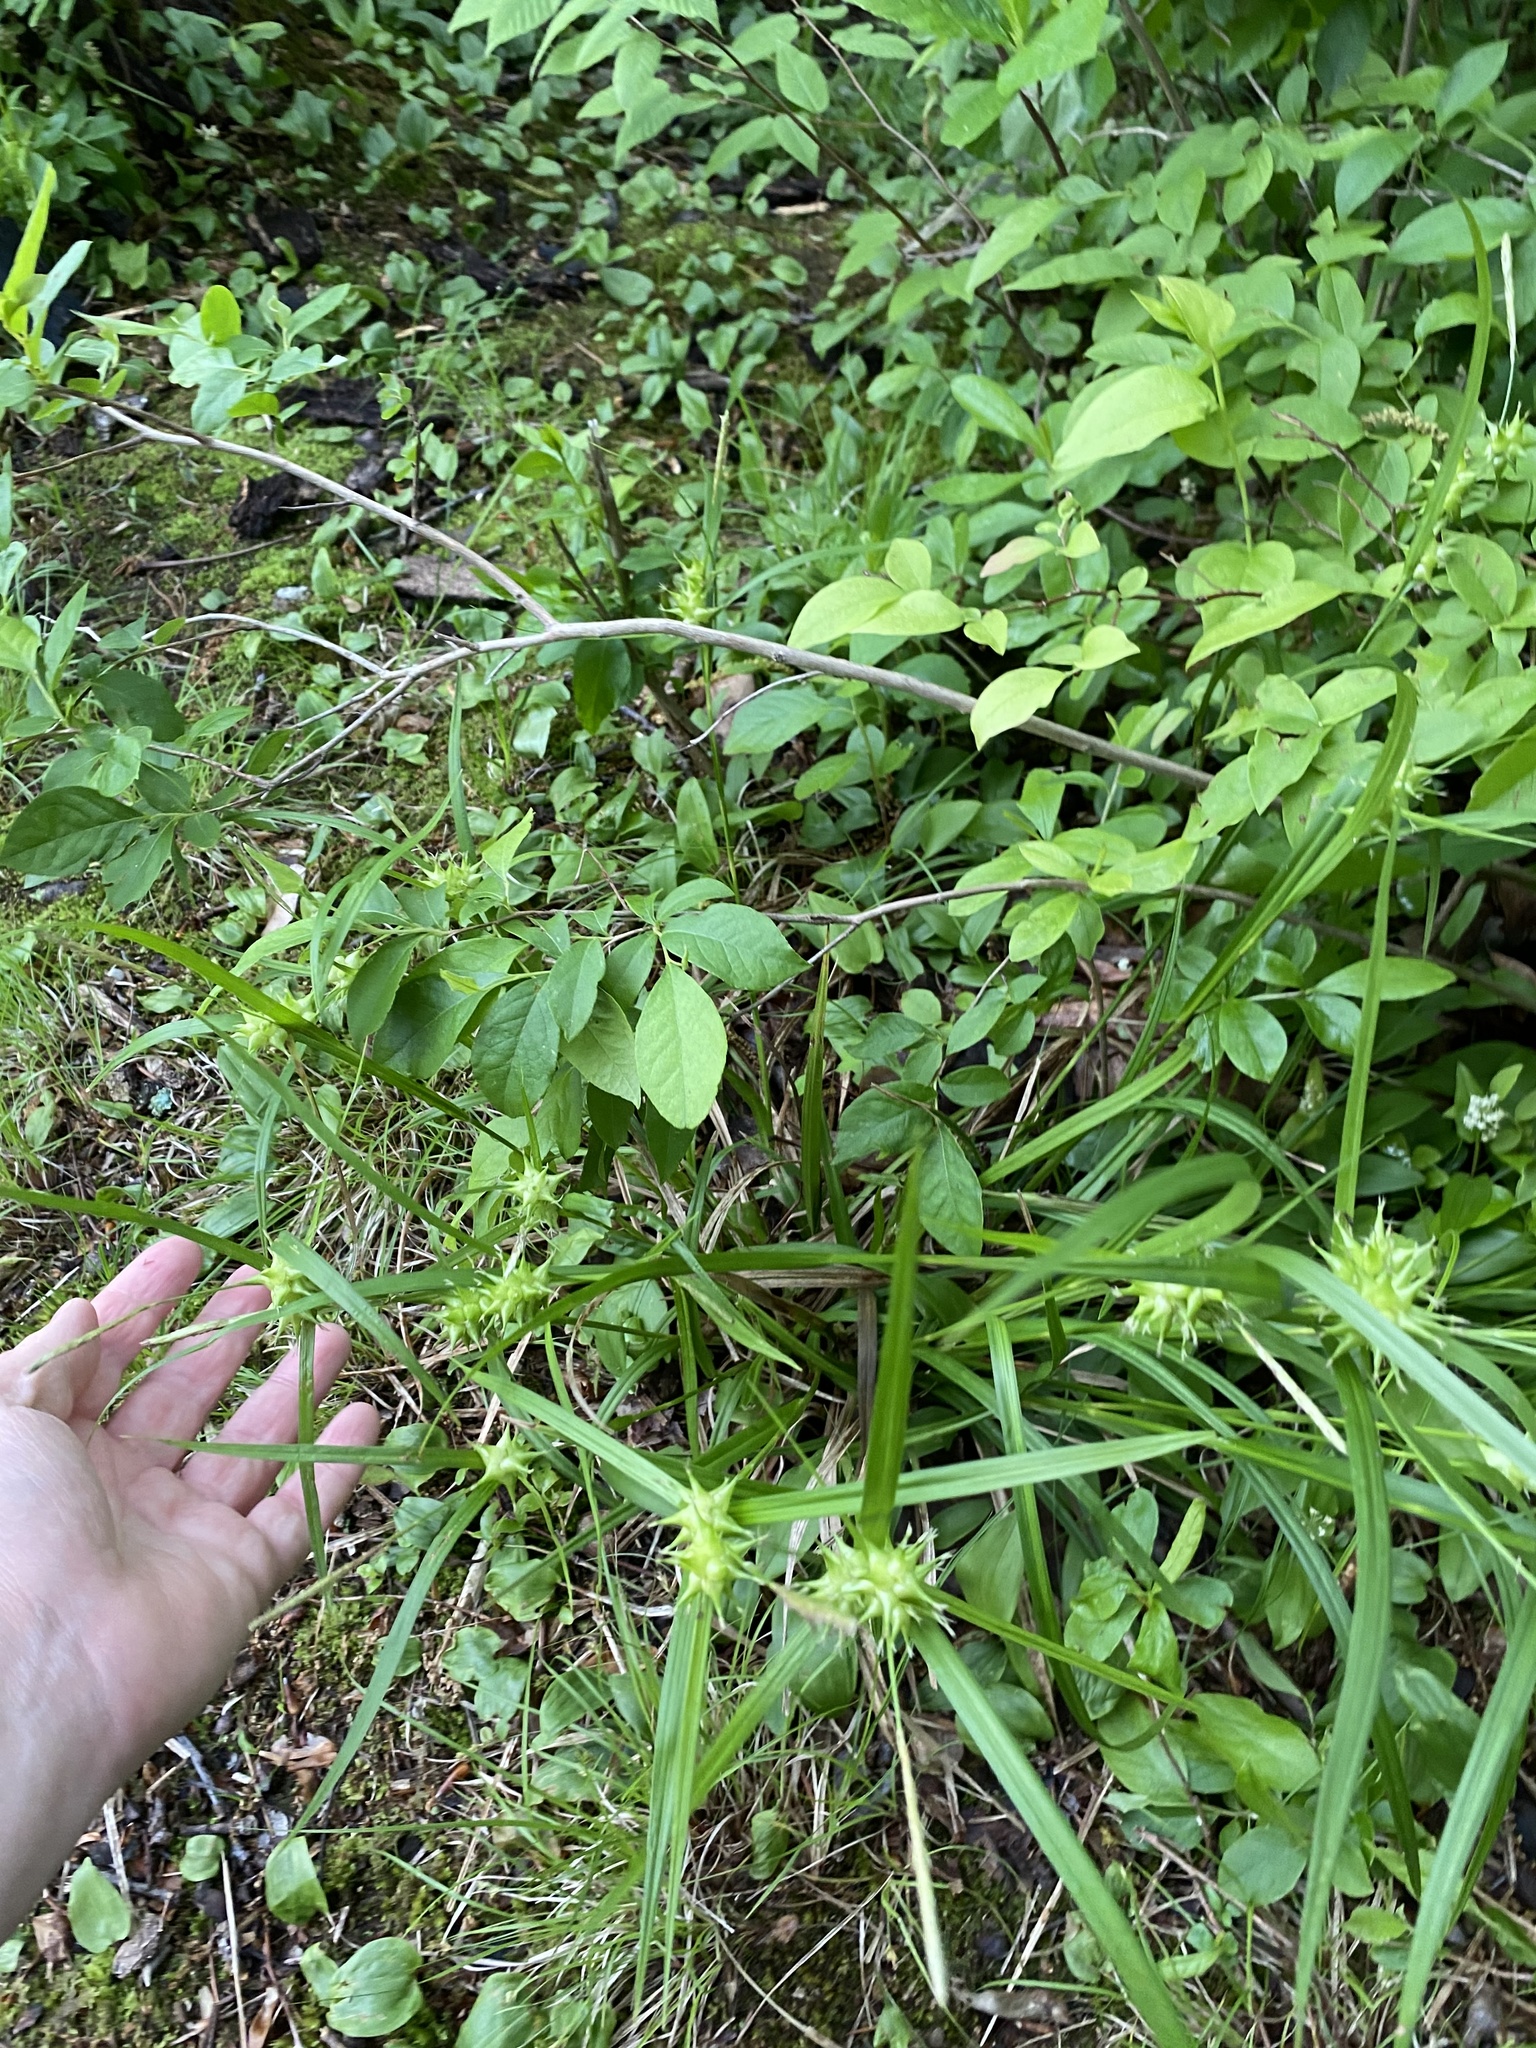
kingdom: Plantae
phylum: Tracheophyta
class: Liliopsida
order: Poales
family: Cyperaceae
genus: Carex
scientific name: Carex intumescens
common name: Greater bladder sedge
